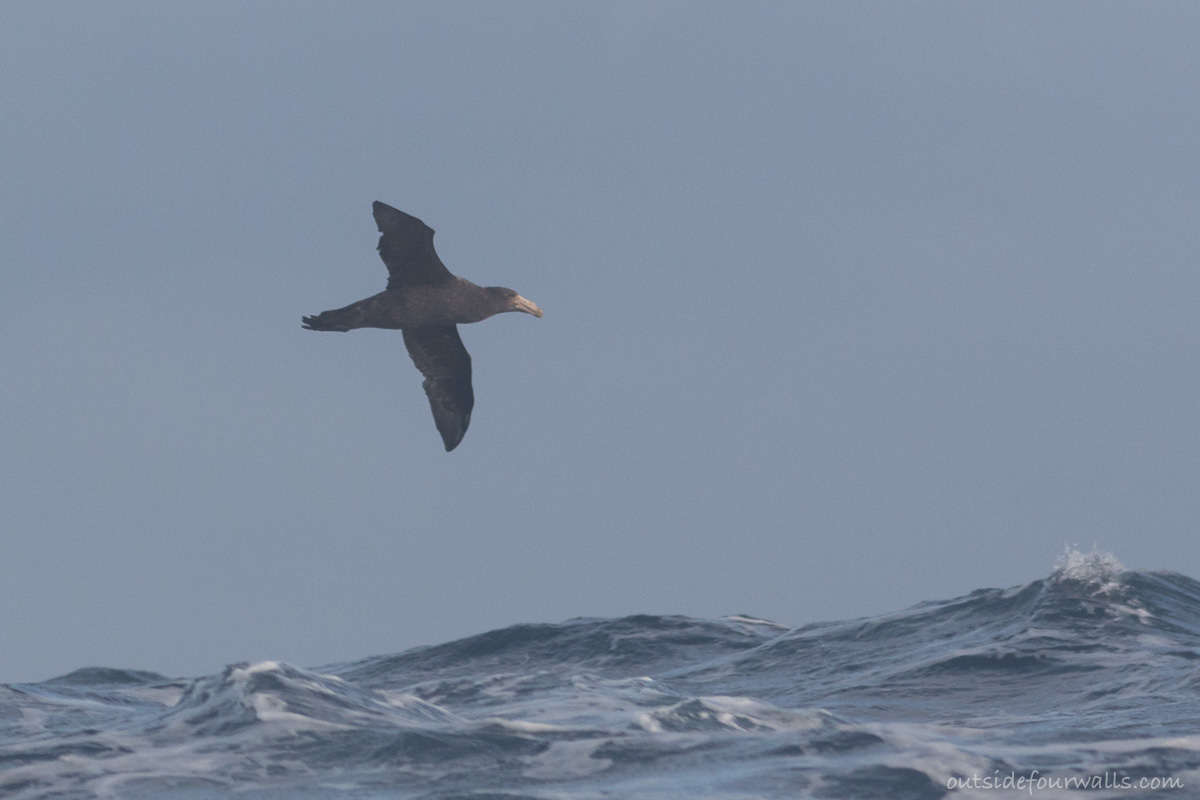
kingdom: Animalia
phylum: Chordata
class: Aves
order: Procellariiformes
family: Procellariidae
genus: Macronectes
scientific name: Macronectes halli
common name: Northern giant petrel
